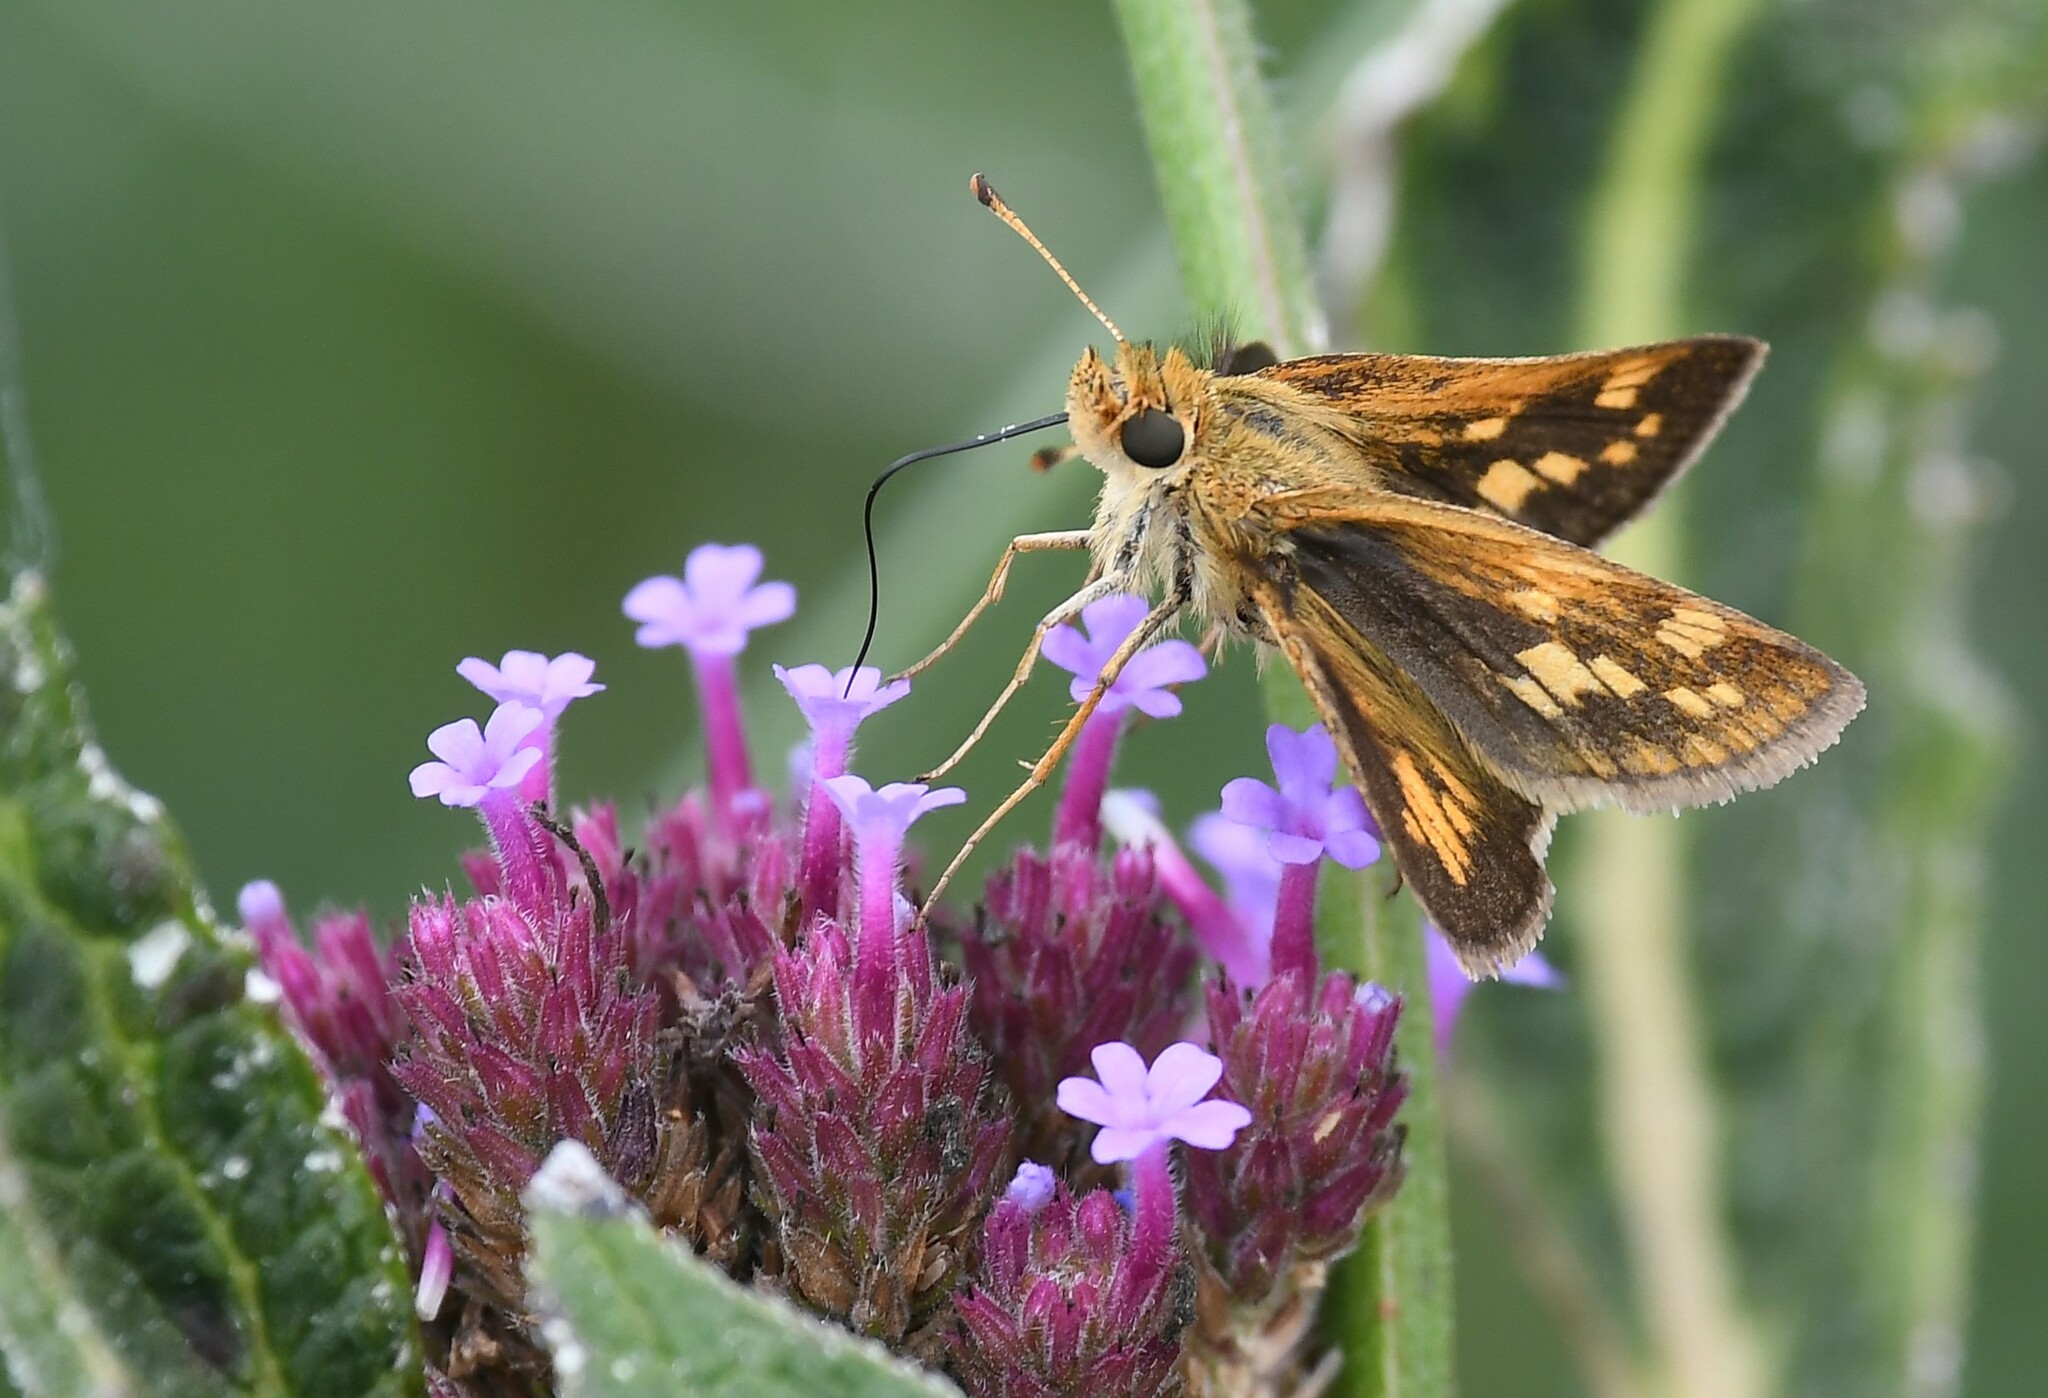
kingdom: Animalia
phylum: Arthropoda
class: Insecta
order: Lepidoptera
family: Hesperiidae
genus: Polites
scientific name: Polites coras
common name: Peck's skipper
